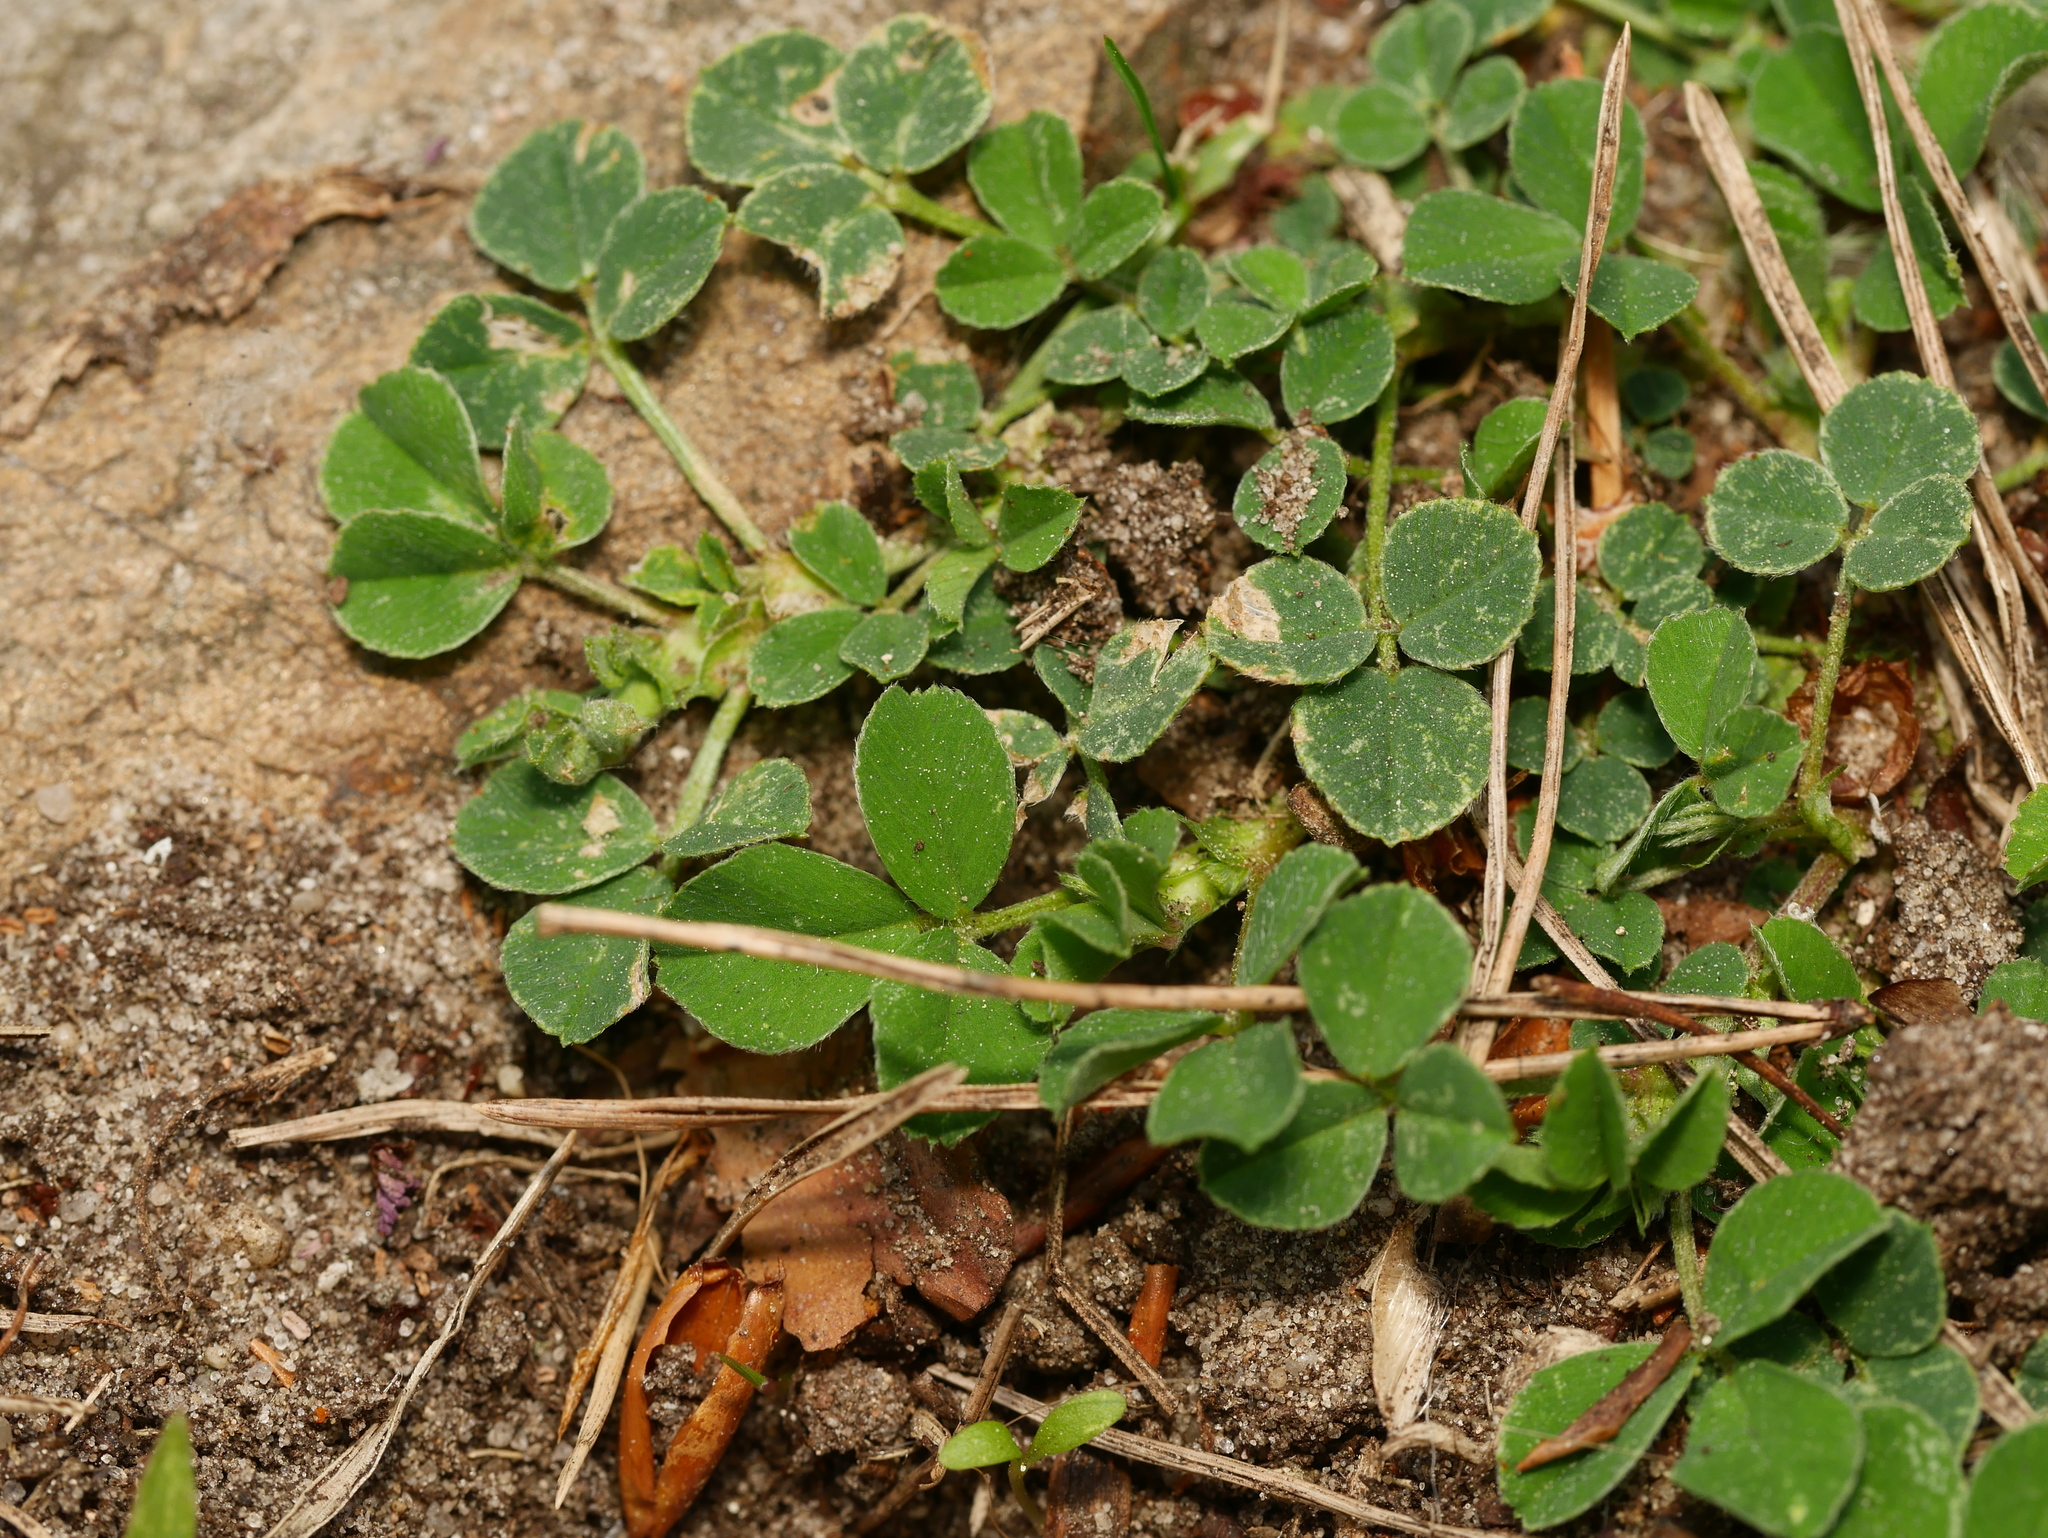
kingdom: Plantae
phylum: Tracheophyta
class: Magnoliopsida
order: Fabales
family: Fabaceae
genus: Medicago
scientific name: Medicago lupulina
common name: Black medick
